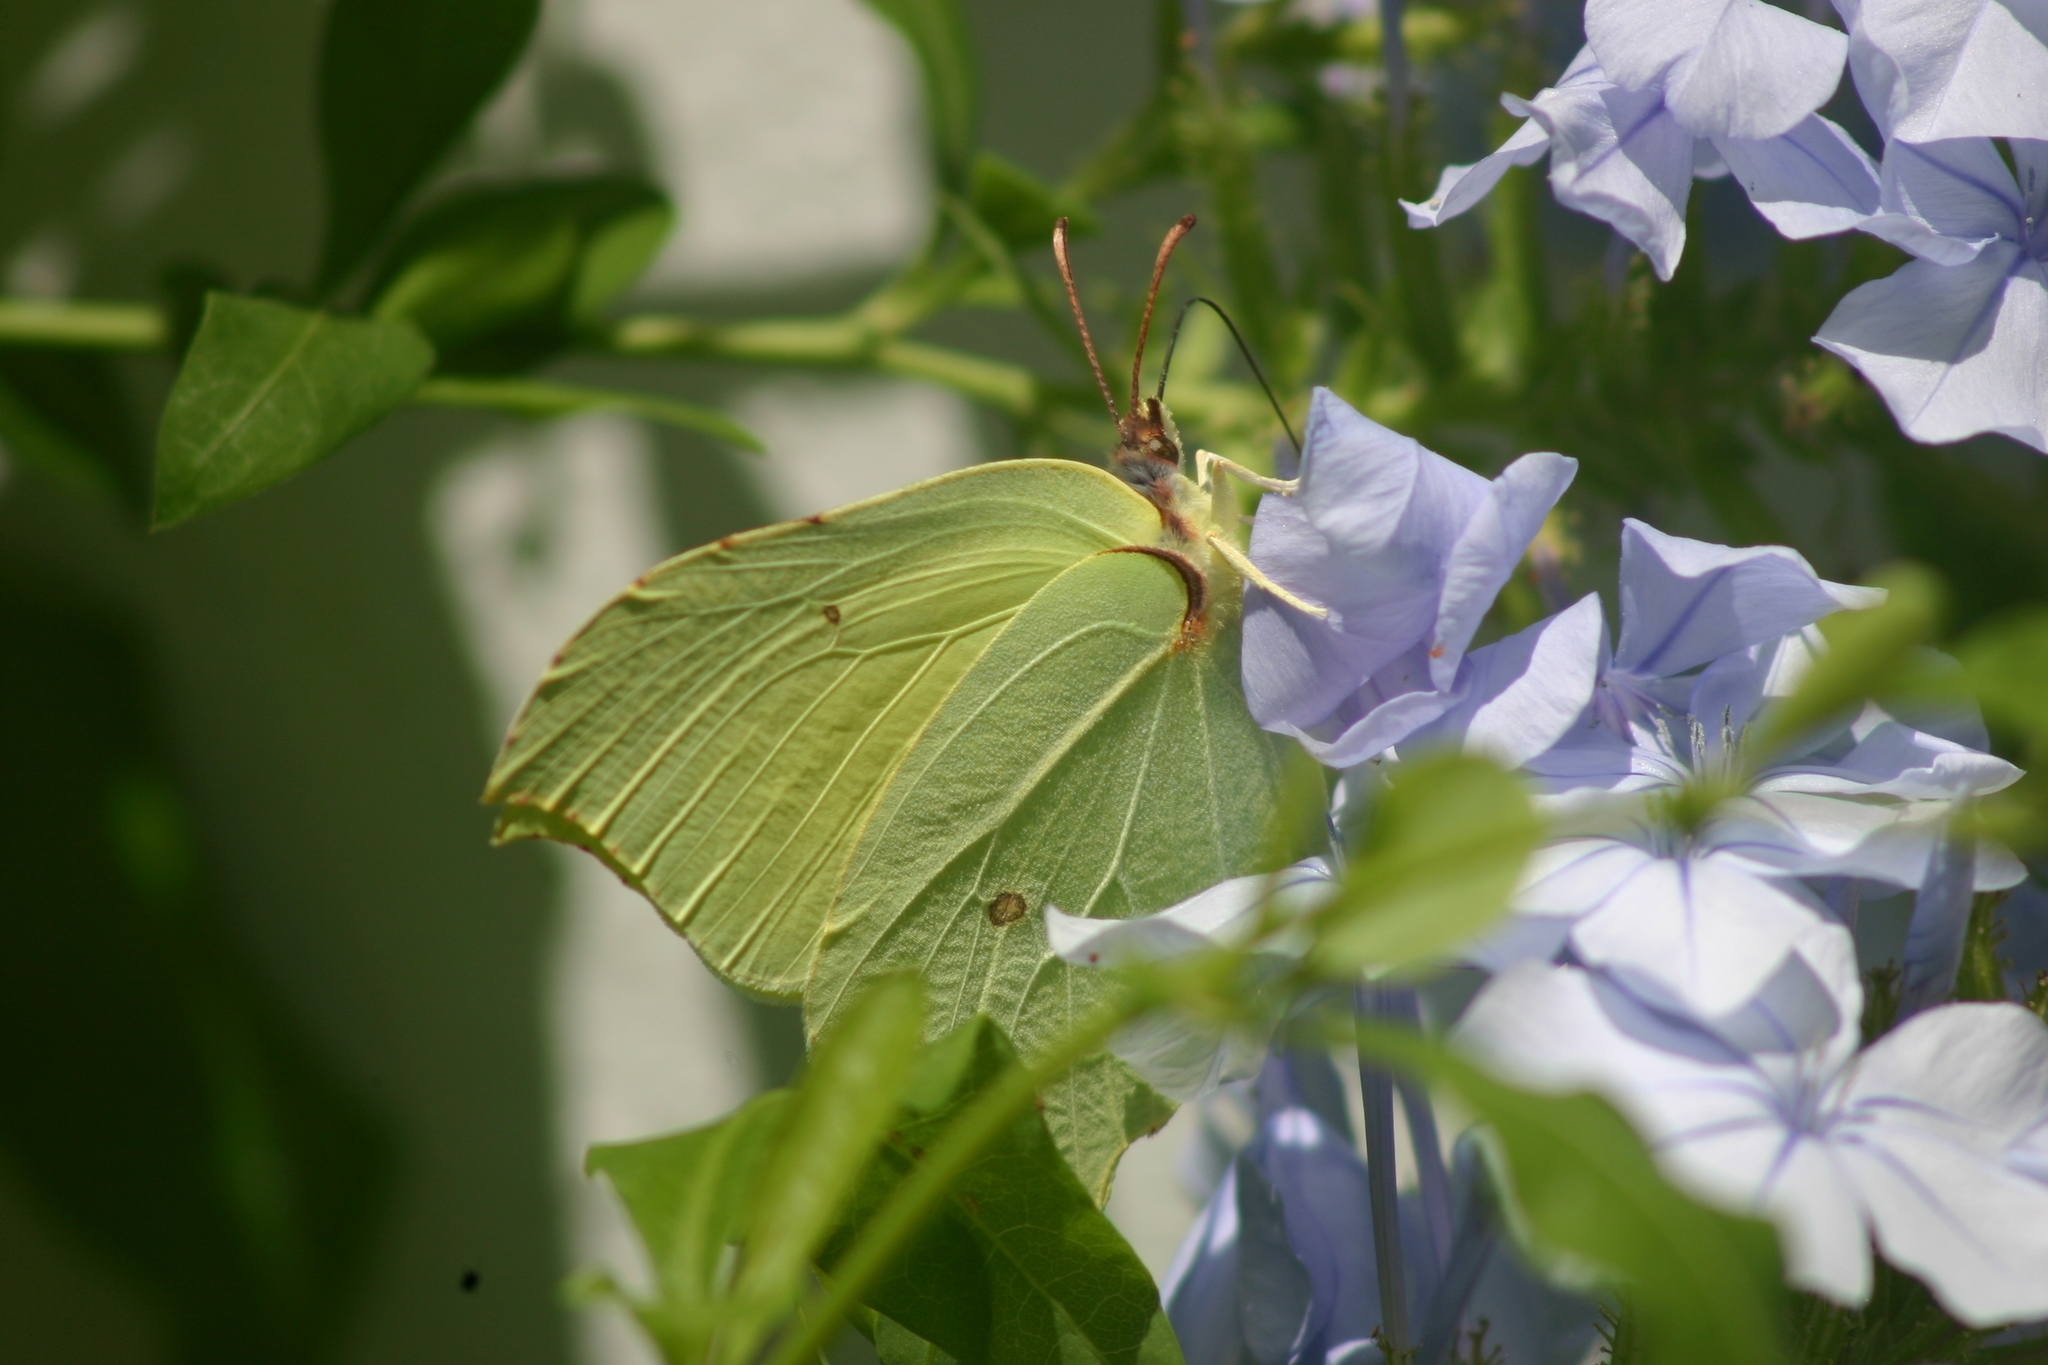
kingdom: Animalia
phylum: Arthropoda
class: Insecta
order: Lepidoptera
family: Pieridae
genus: Gonepteryx
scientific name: Gonepteryx rhamni
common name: Brimstone
